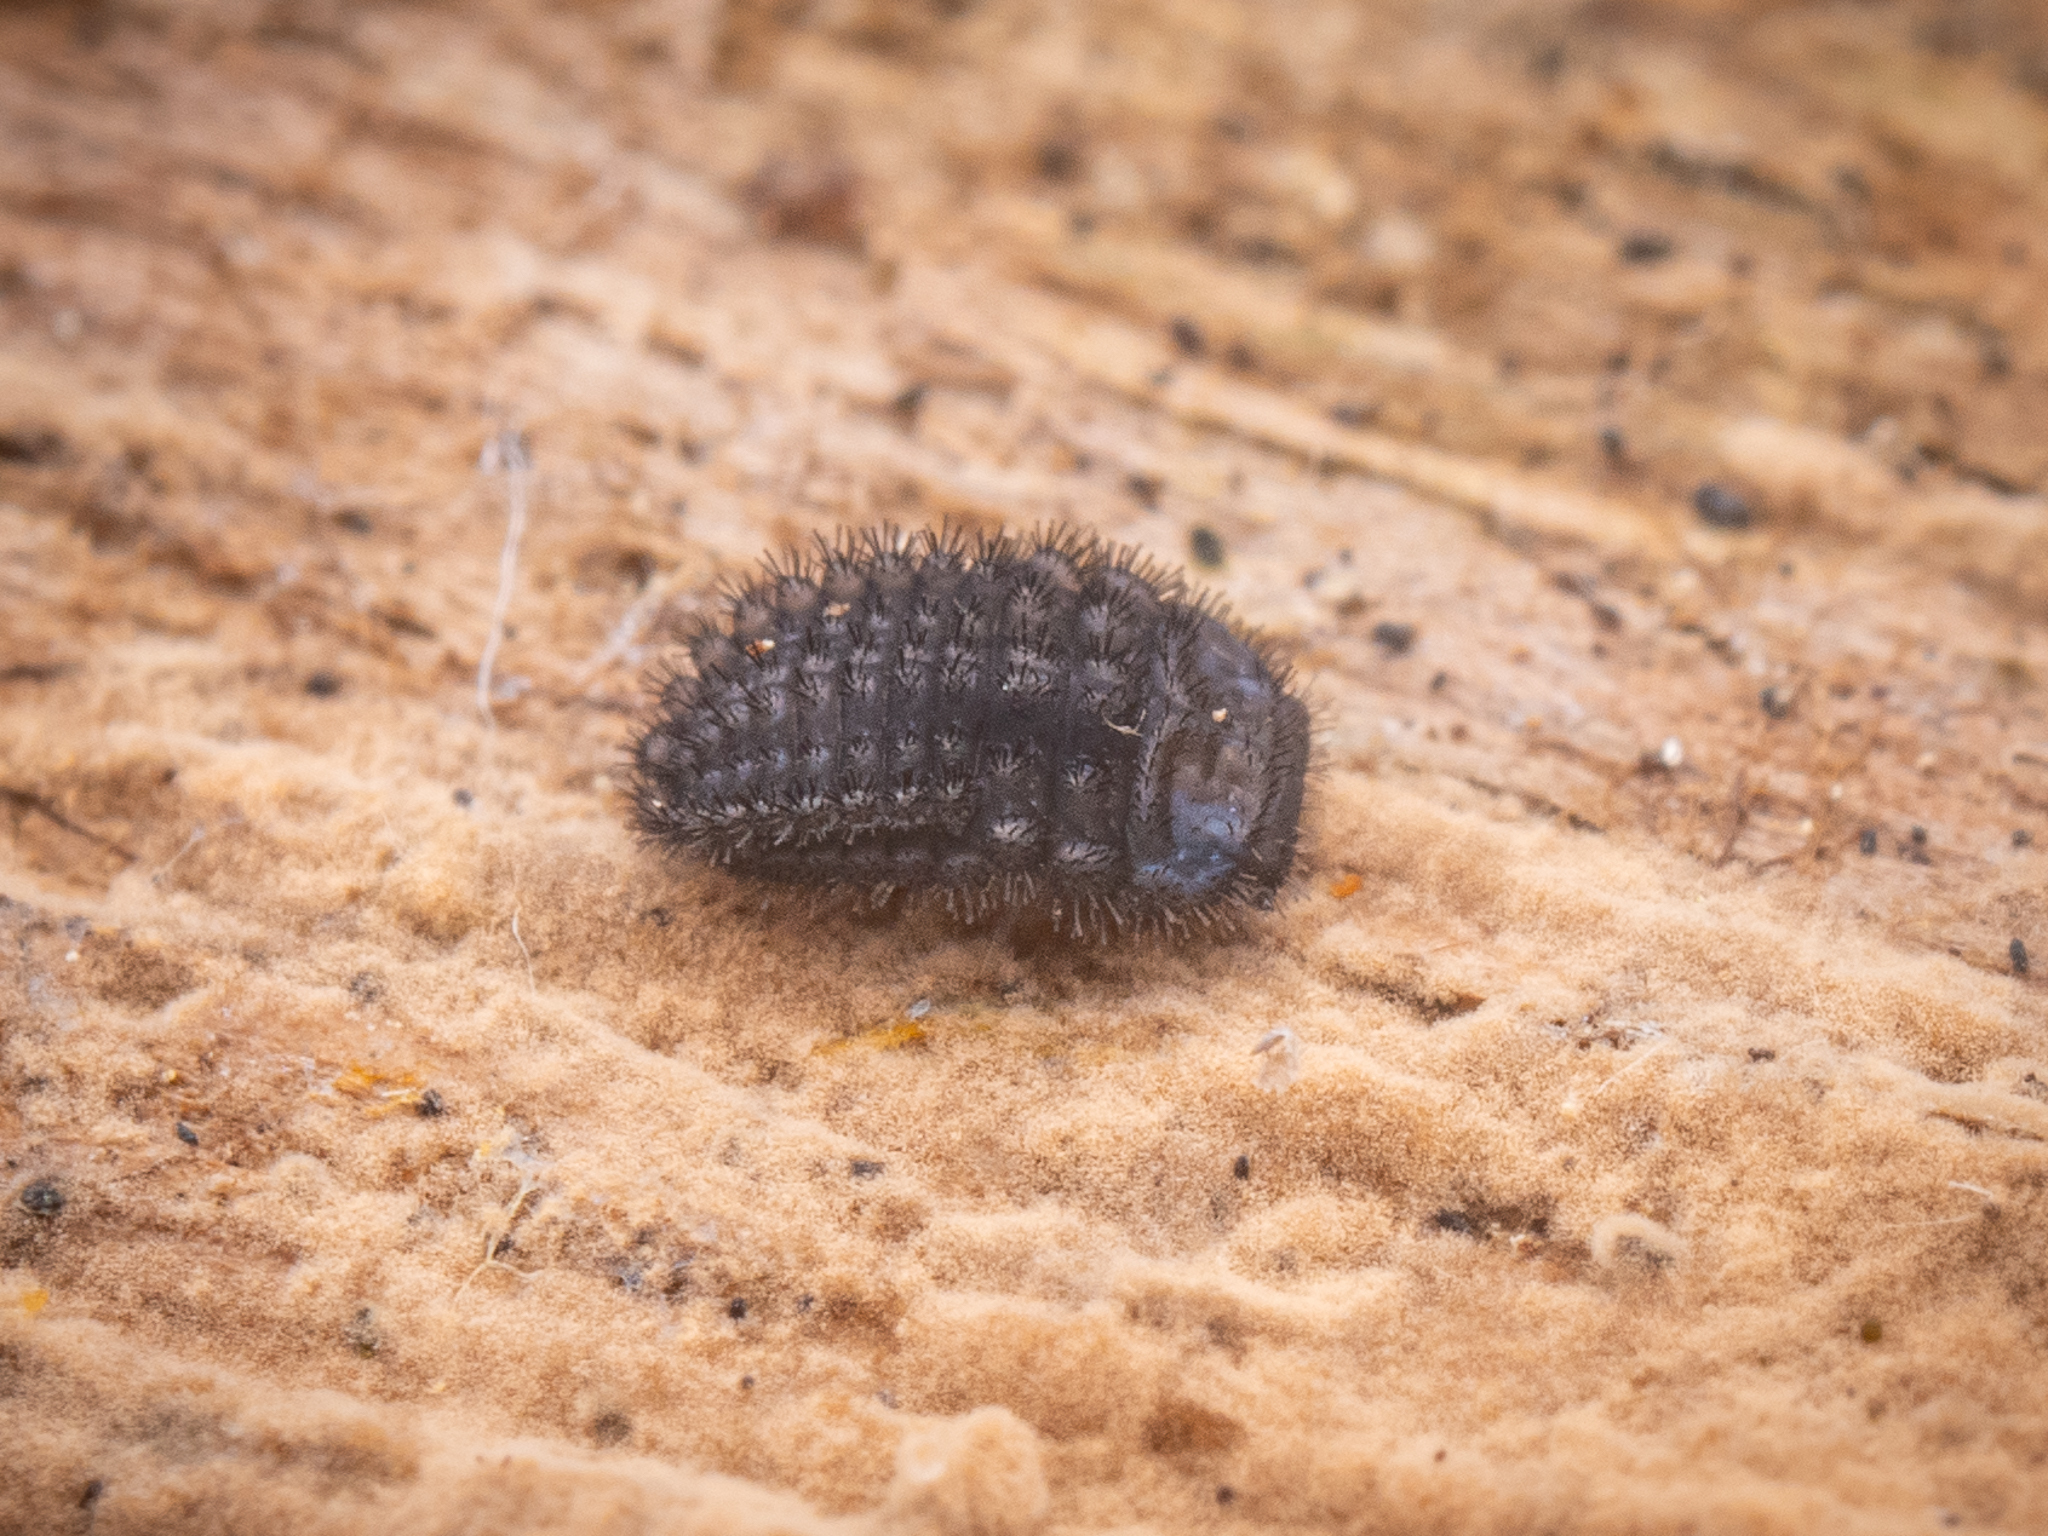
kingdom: Animalia
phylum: Arthropoda
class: Insecta
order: Coleoptera
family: Endomychidae
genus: Mycetina
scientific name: Mycetina cruciata
